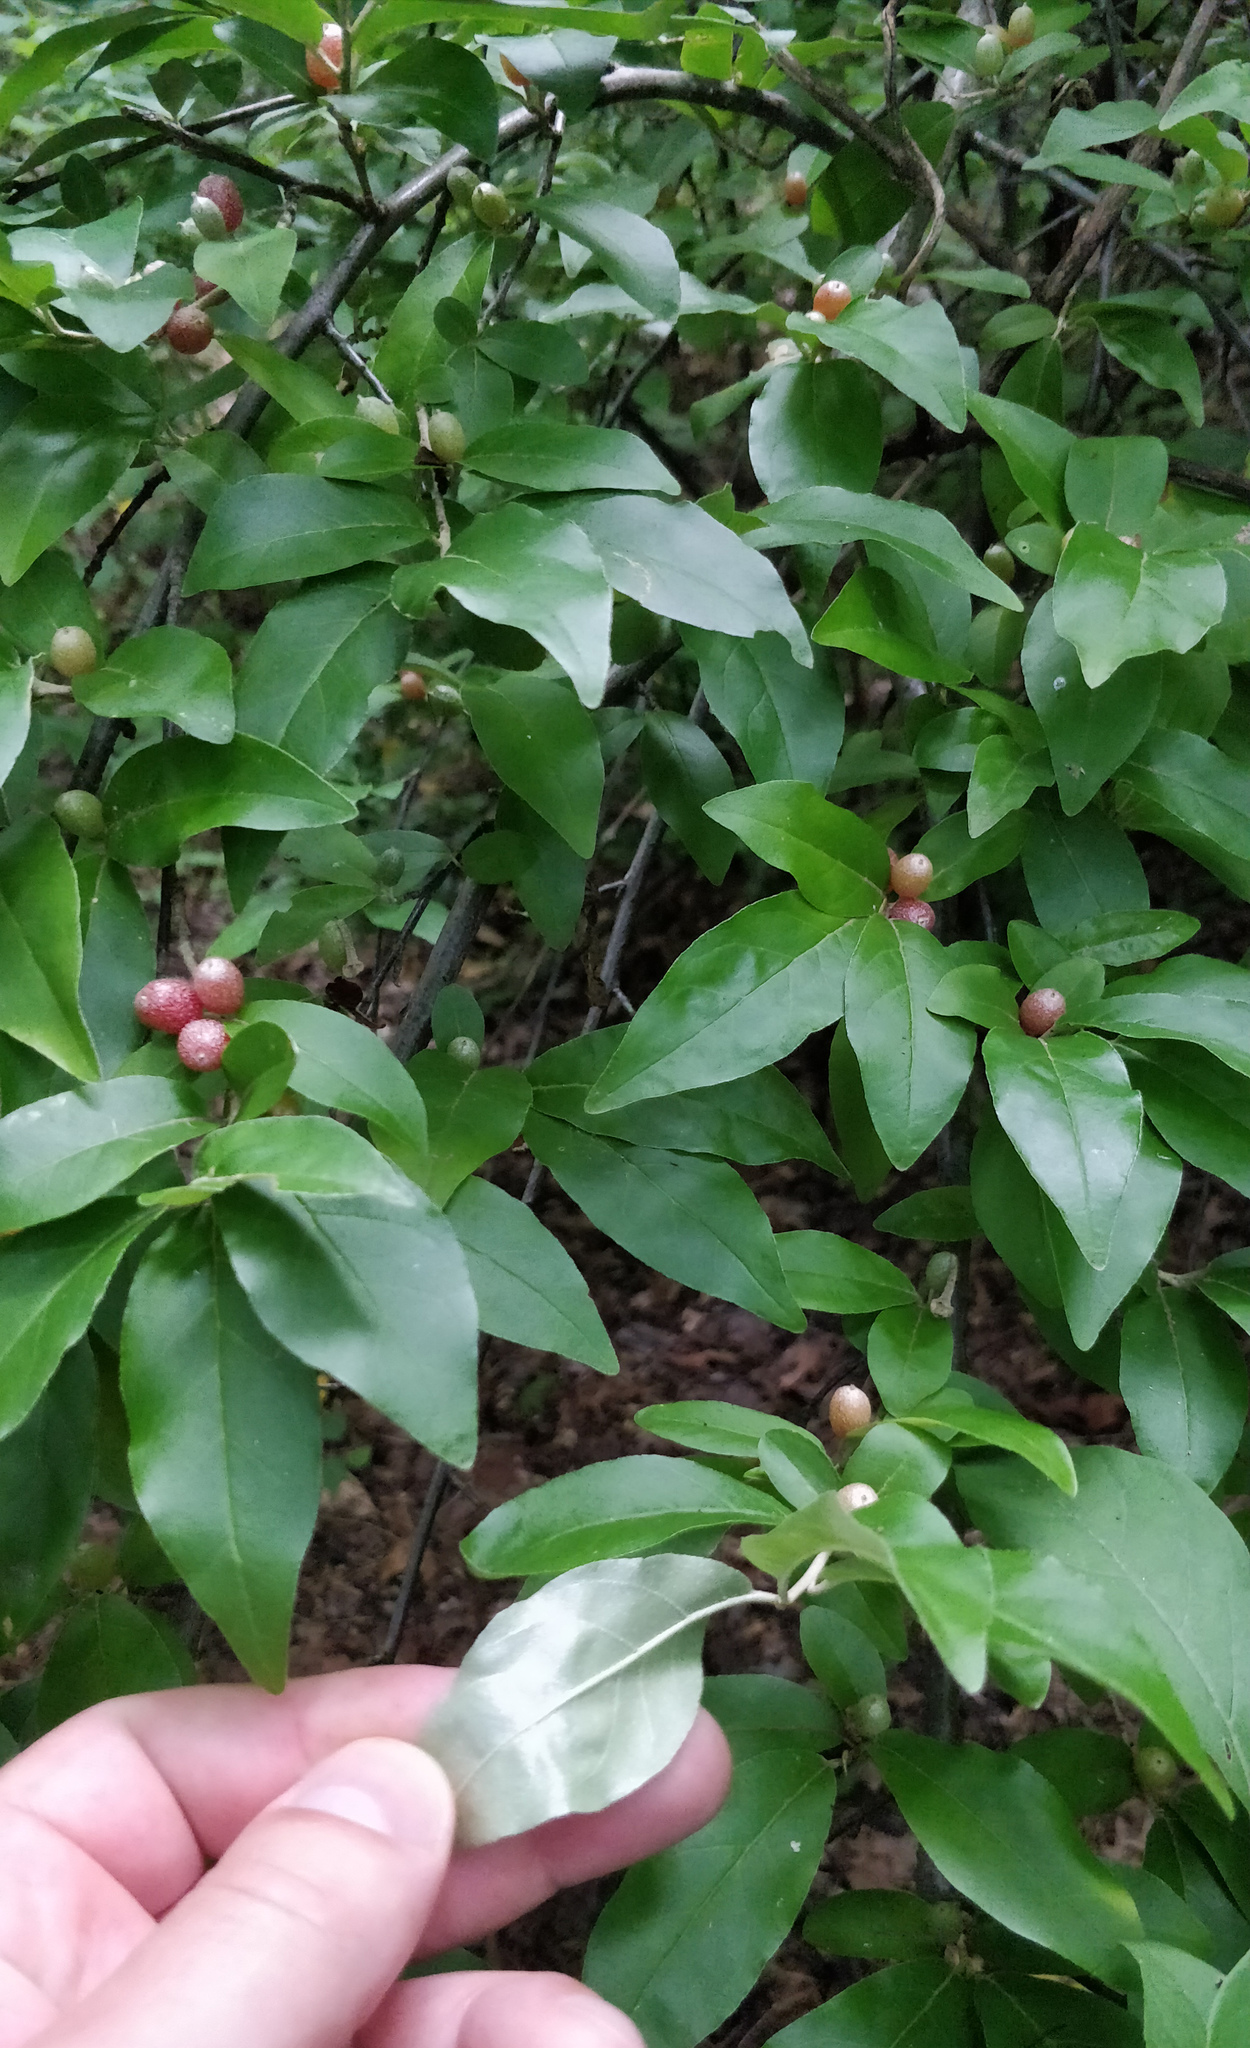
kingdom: Plantae
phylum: Tracheophyta
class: Magnoliopsida
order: Rosales
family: Elaeagnaceae
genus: Elaeagnus
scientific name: Elaeagnus umbellata
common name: Autumn olive
